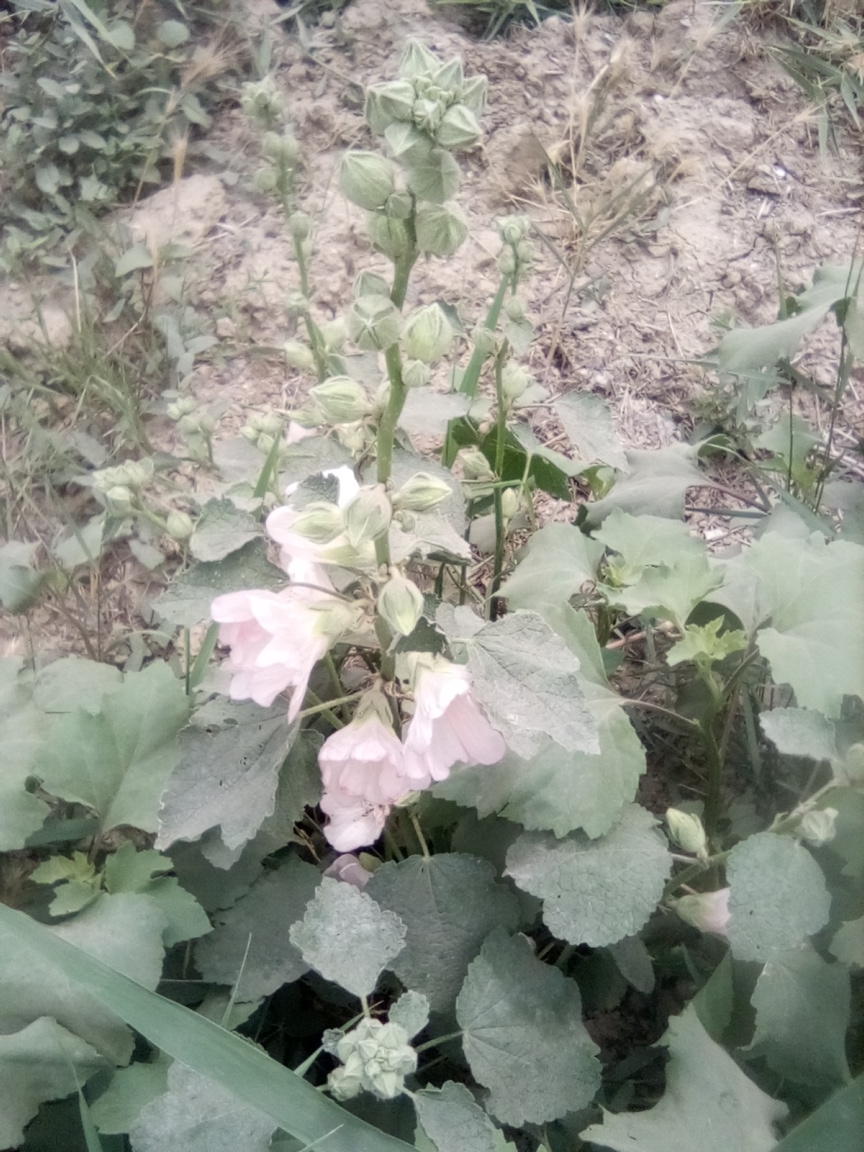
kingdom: Plantae
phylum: Tracheophyta
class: Magnoliopsida
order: Malvales
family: Malvaceae
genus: Alcea
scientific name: Alcea rosea
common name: Hollyhock
